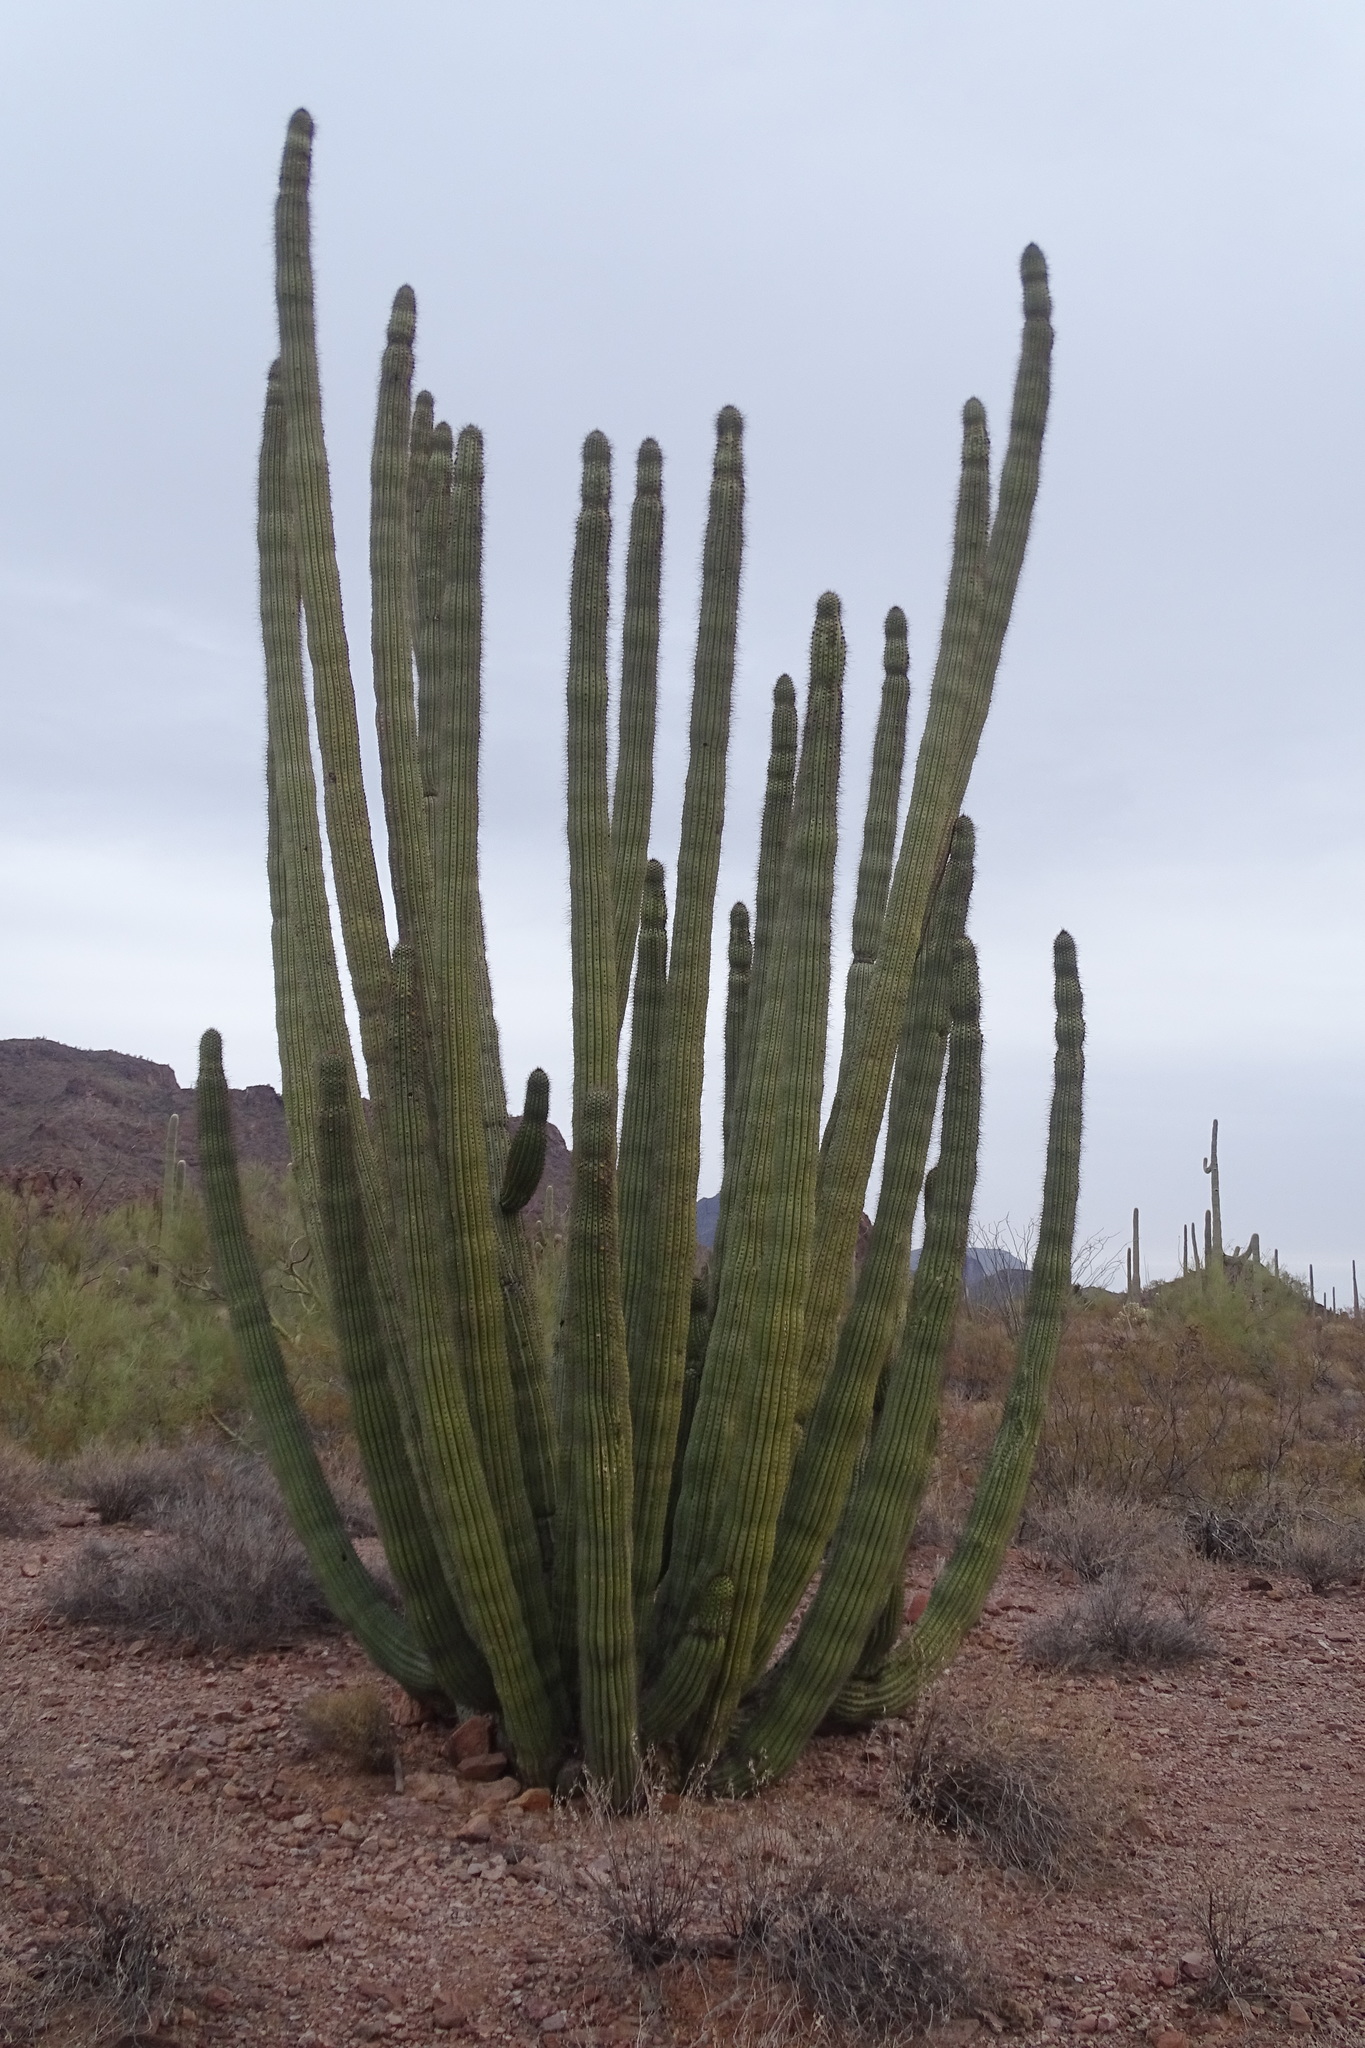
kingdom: Plantae
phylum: Tracheophyta
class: Magnoliopsida
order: Caryophyllales
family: Cactaceae
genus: Stenocereus
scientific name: Stenocereus thurberi
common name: Organ pipe cactus
